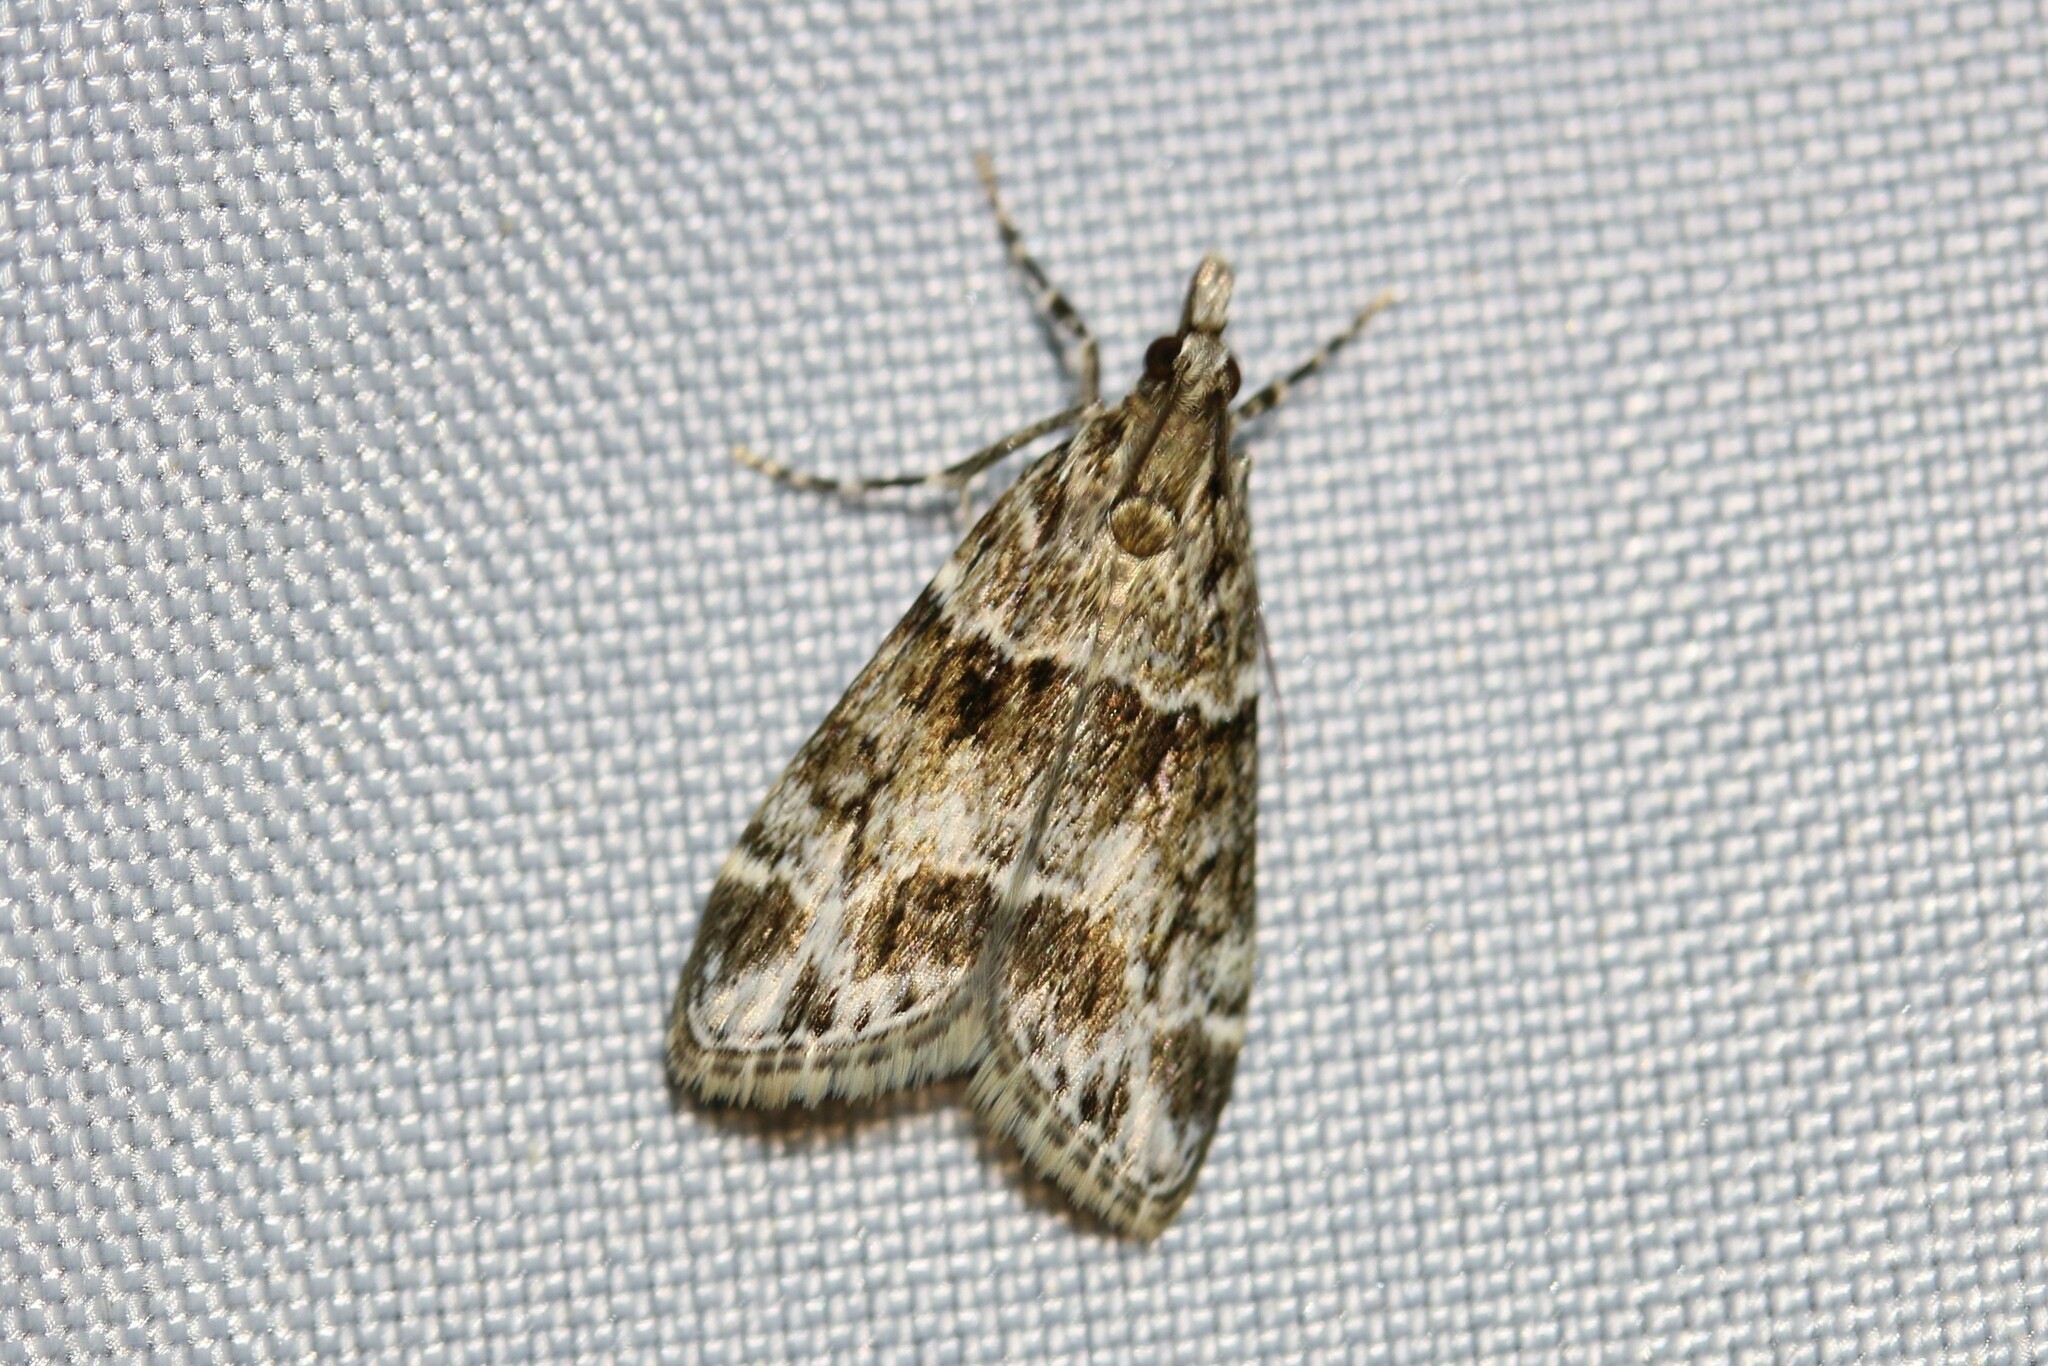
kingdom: Animalia
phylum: Arthropoda
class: Insecta
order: Lepidoptera
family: Crambidae
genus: Eudonia
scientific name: Eudonia mercurella
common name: Small grey
